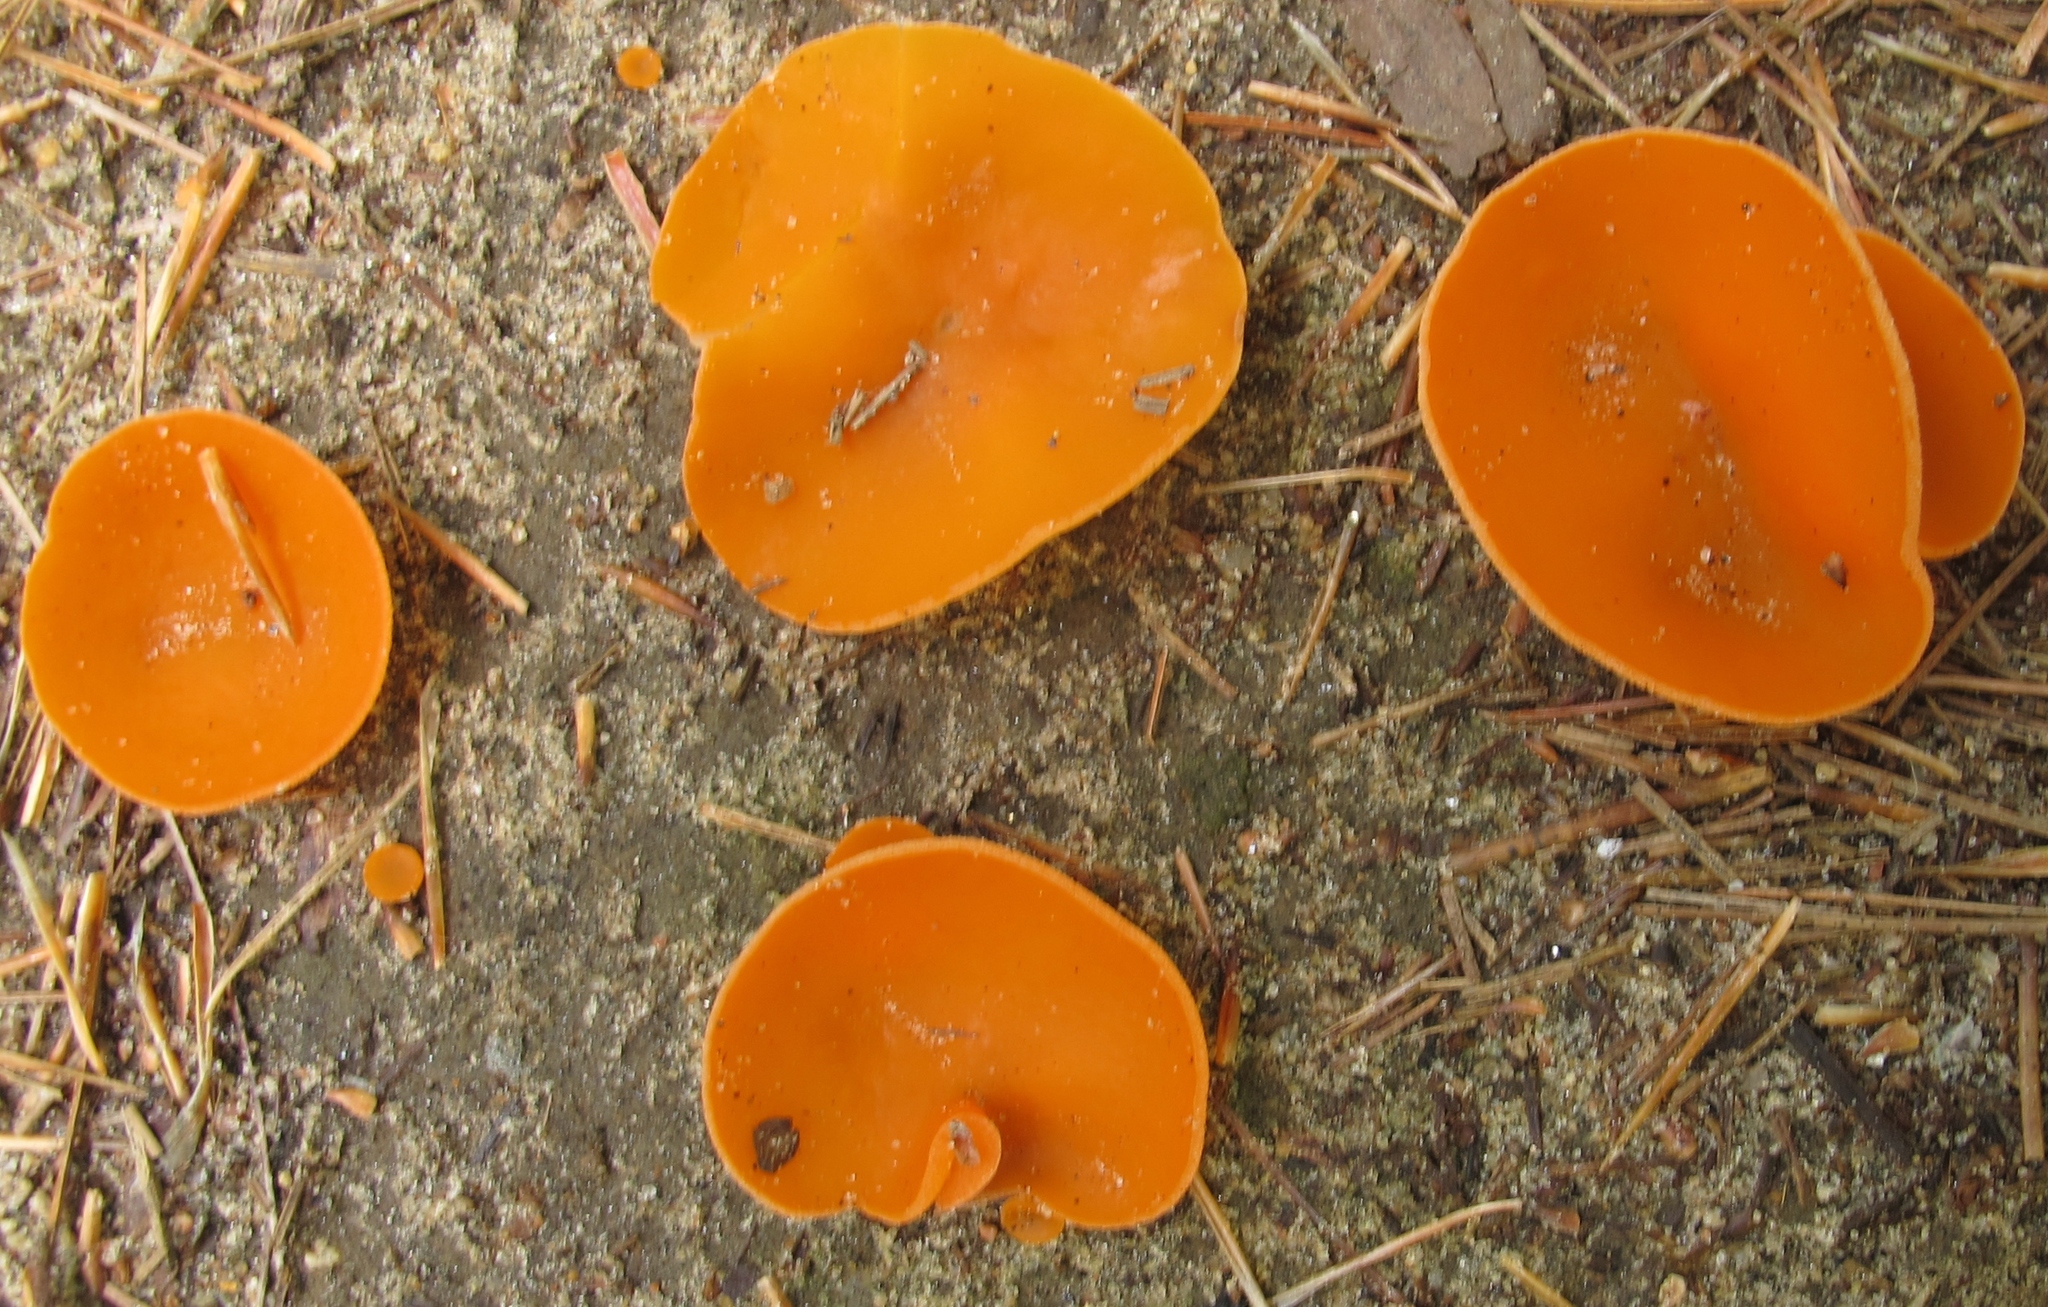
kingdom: Fungi
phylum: Ascomycota
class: Pezizomycetes
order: Pezizales
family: Pyronemataceae
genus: Aleuria
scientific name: Aleuria aurantia
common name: Orange peel fungus
